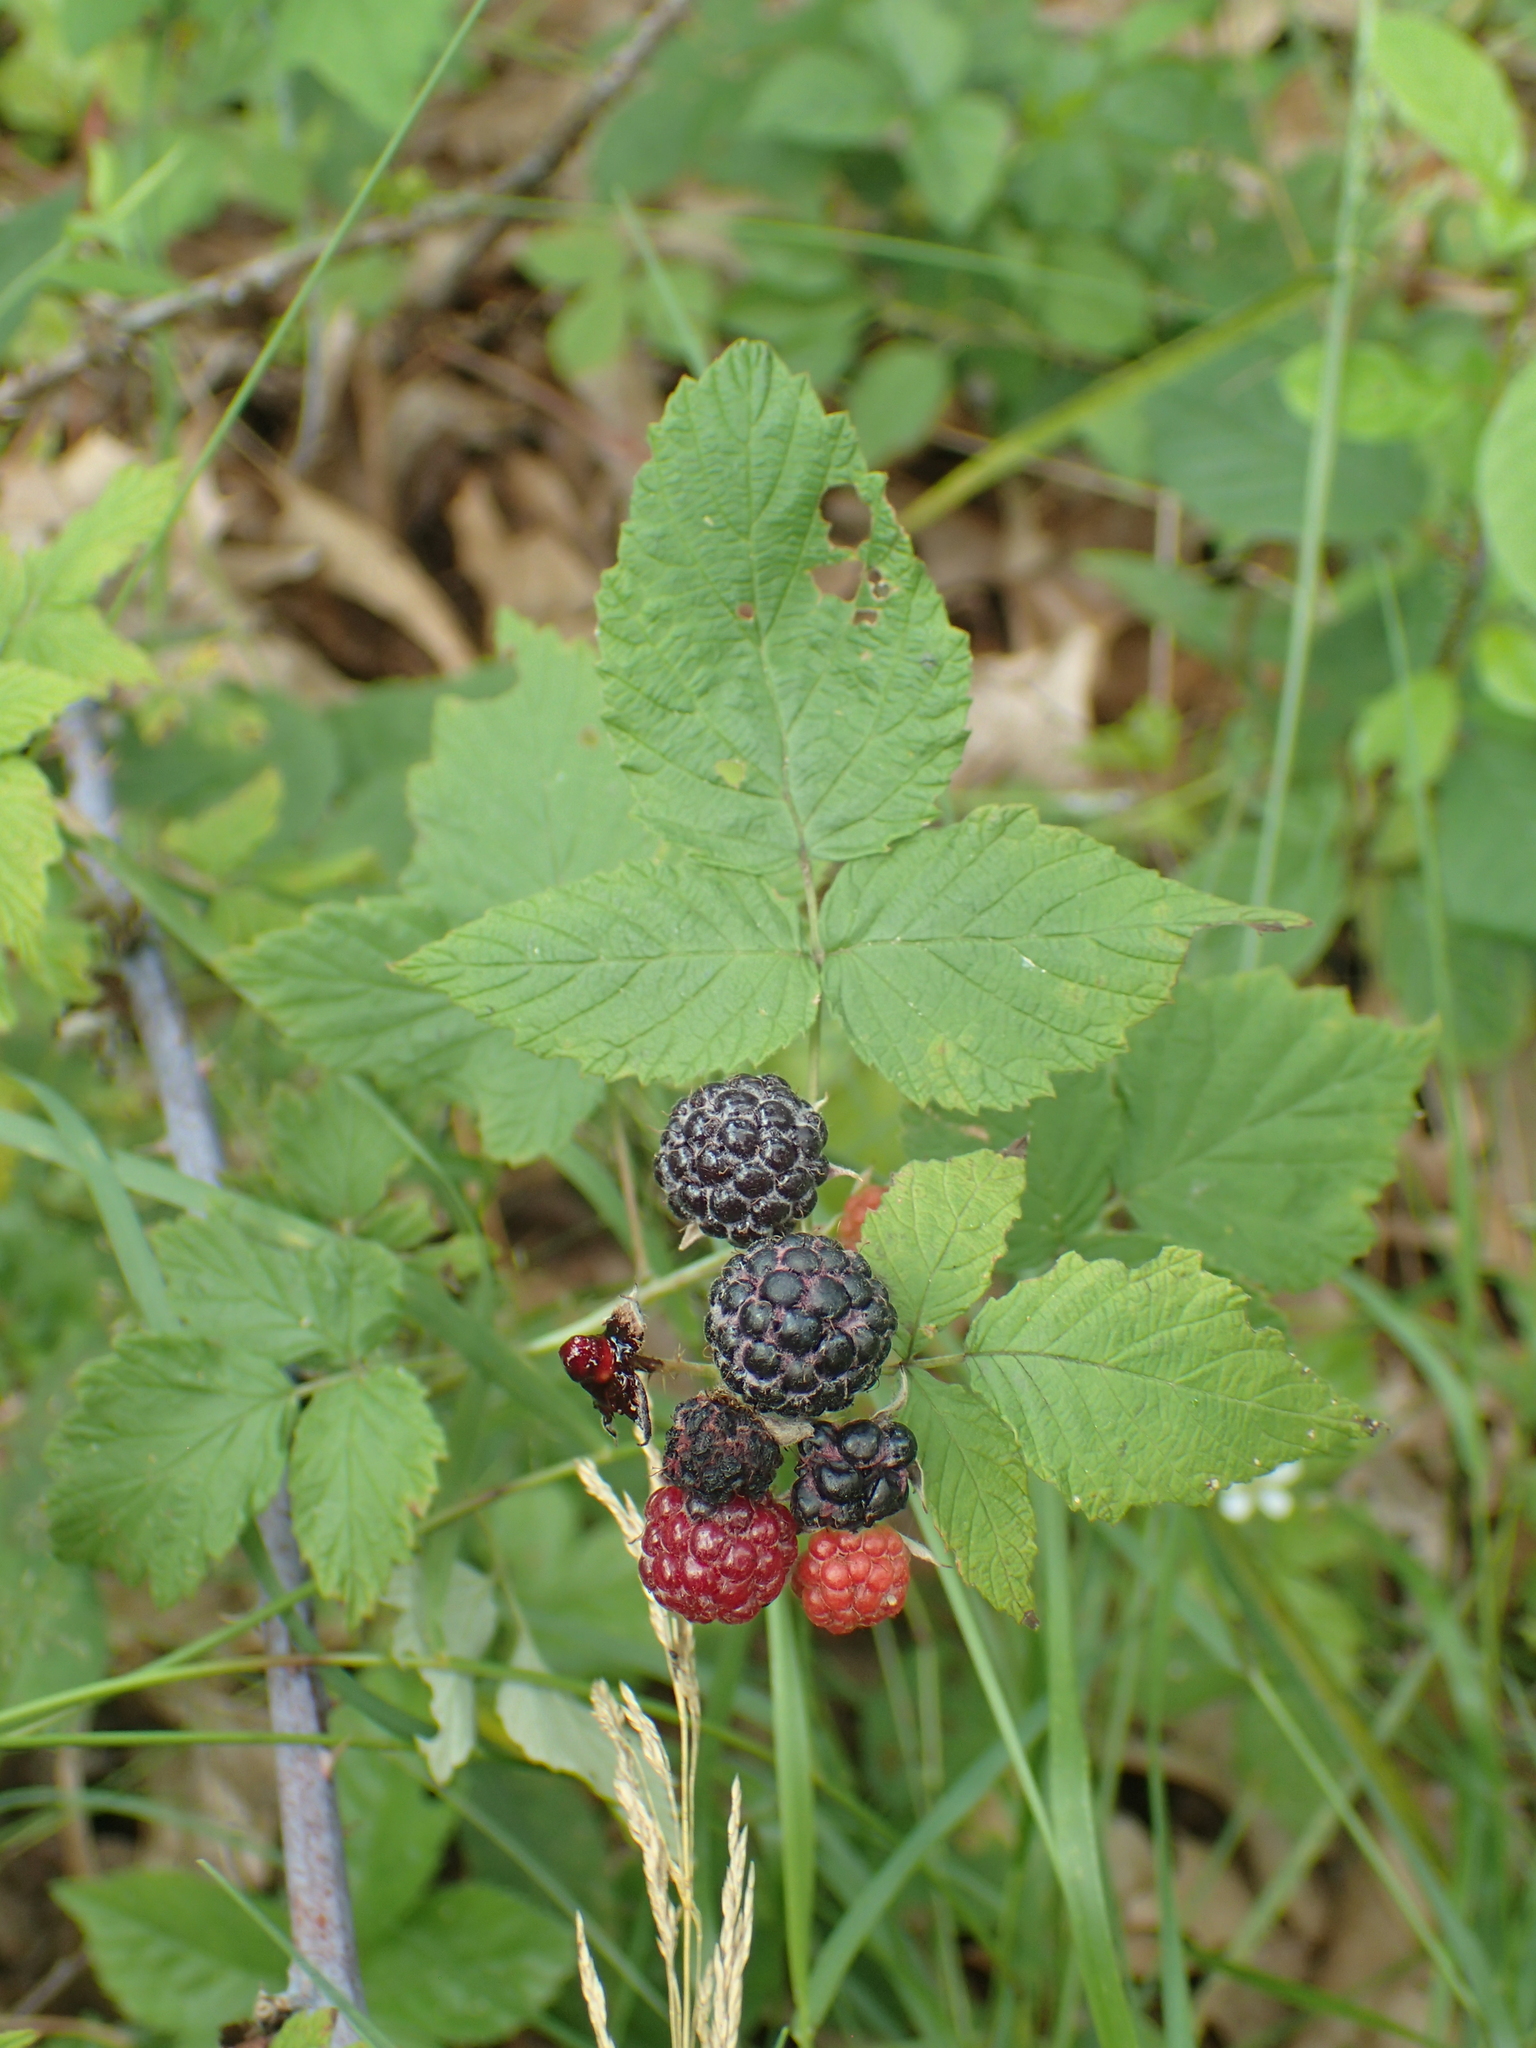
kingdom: Plantae
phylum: Tracheophyta
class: Magnoliopsida
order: Rosales
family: Rosaceae
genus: Rubus
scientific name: Rubus occidentalis
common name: Black raspberry
